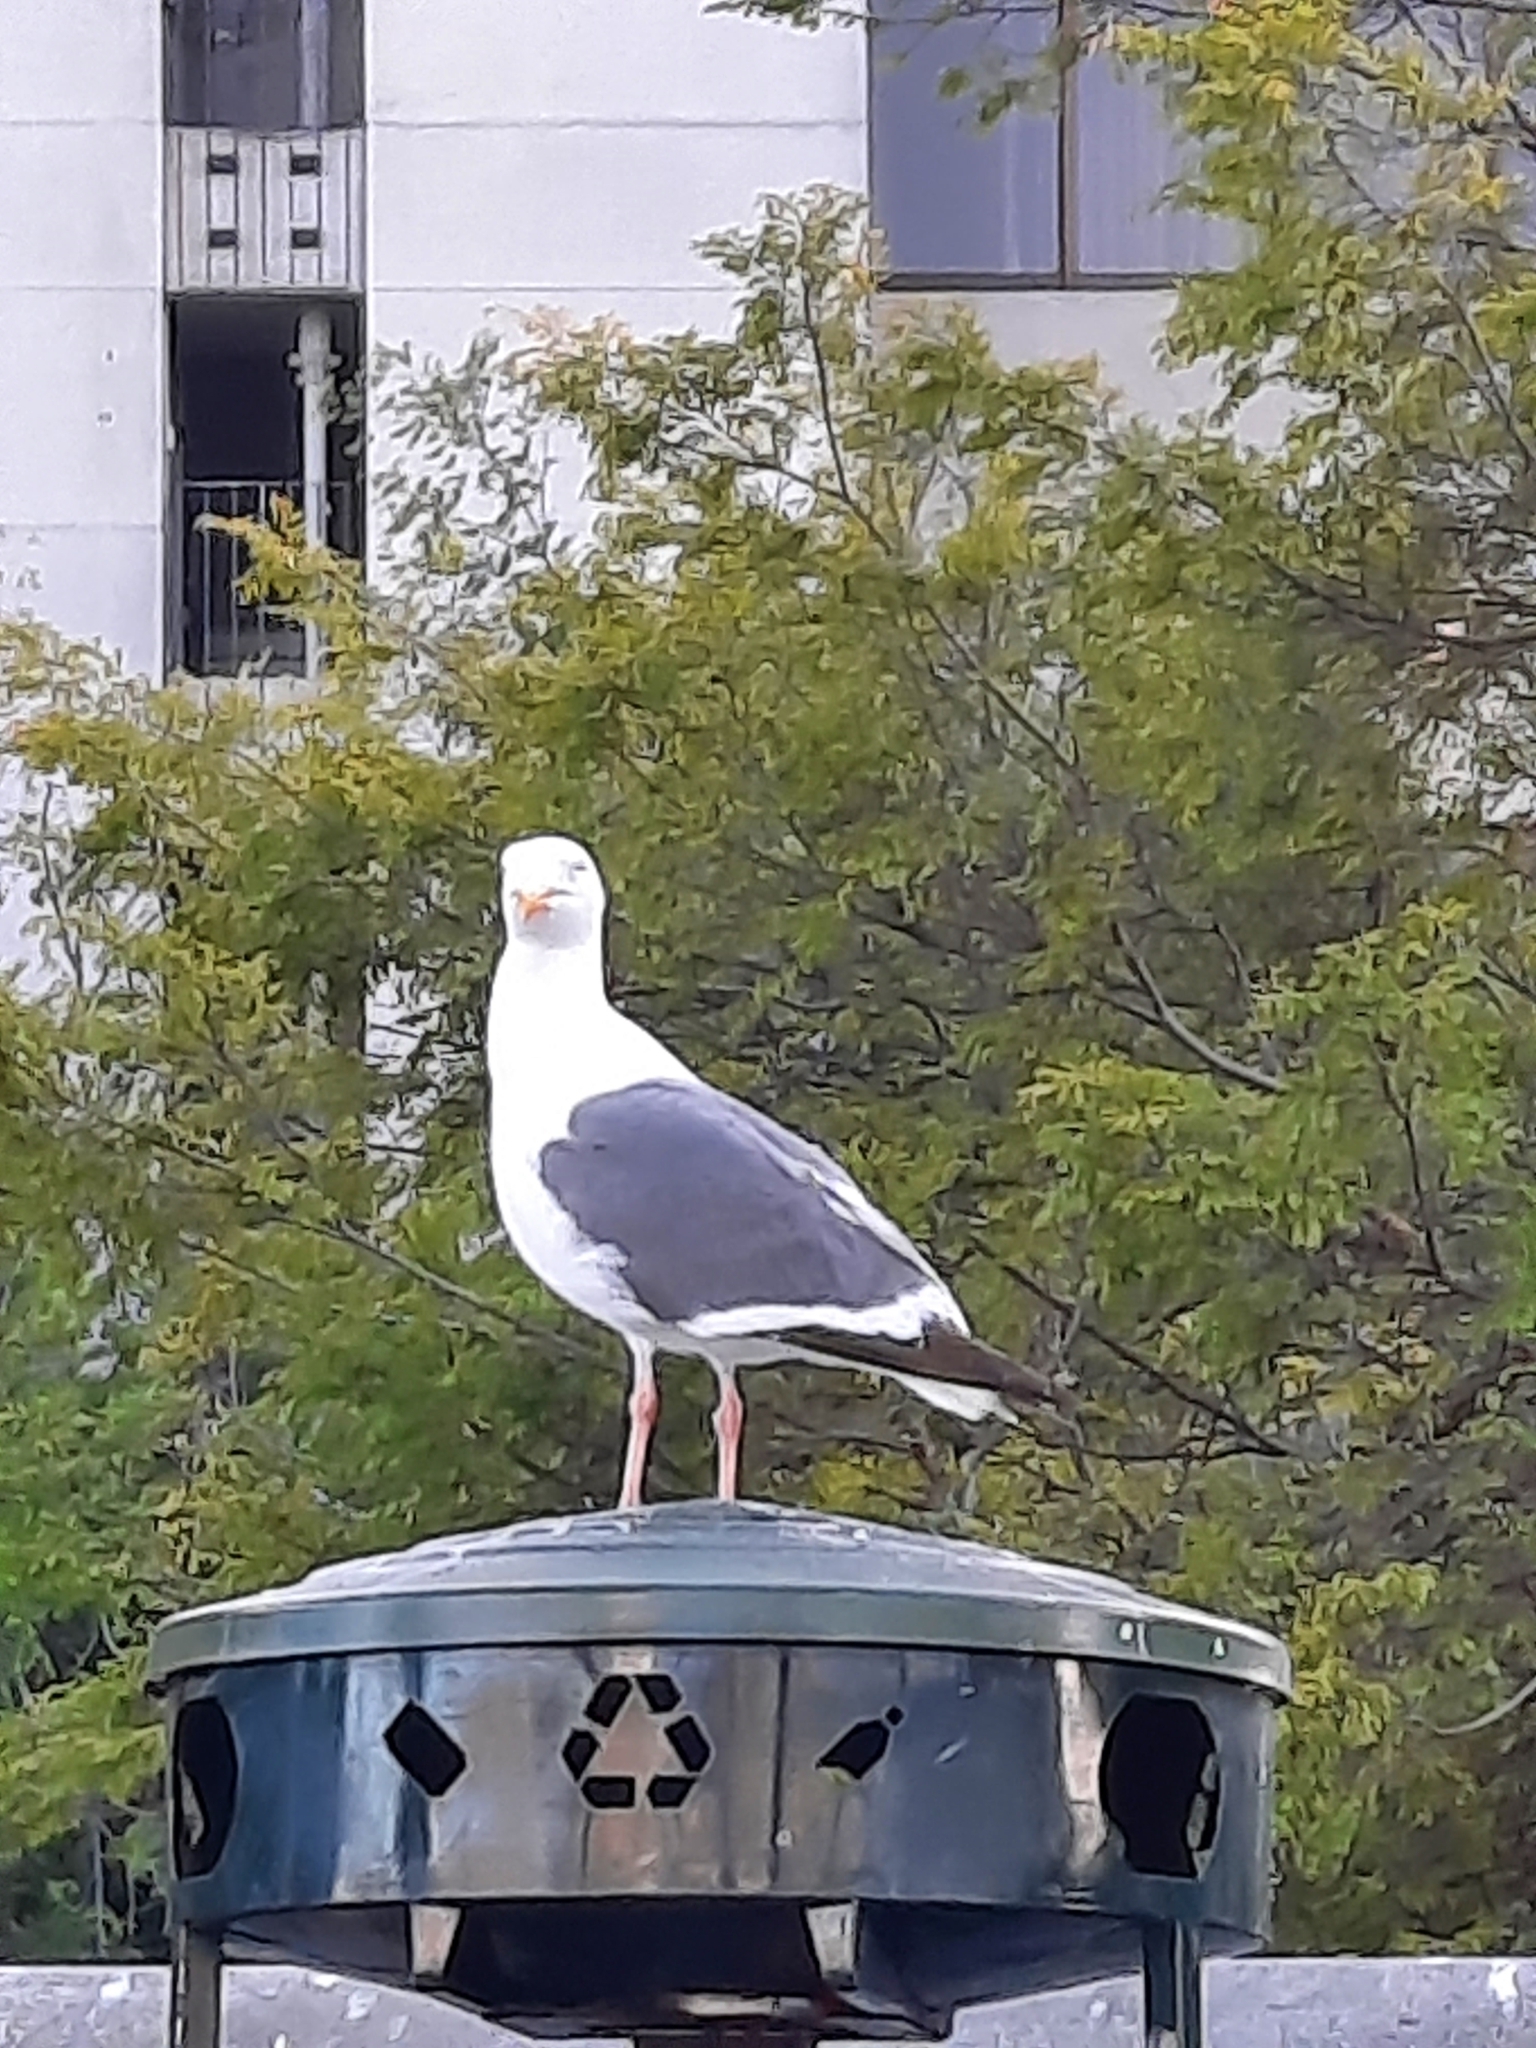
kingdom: Animalia
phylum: Chordata
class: Aves
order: Charadriiformes
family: Laridae
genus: Larus
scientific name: Larus occidentalis
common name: Western gull
